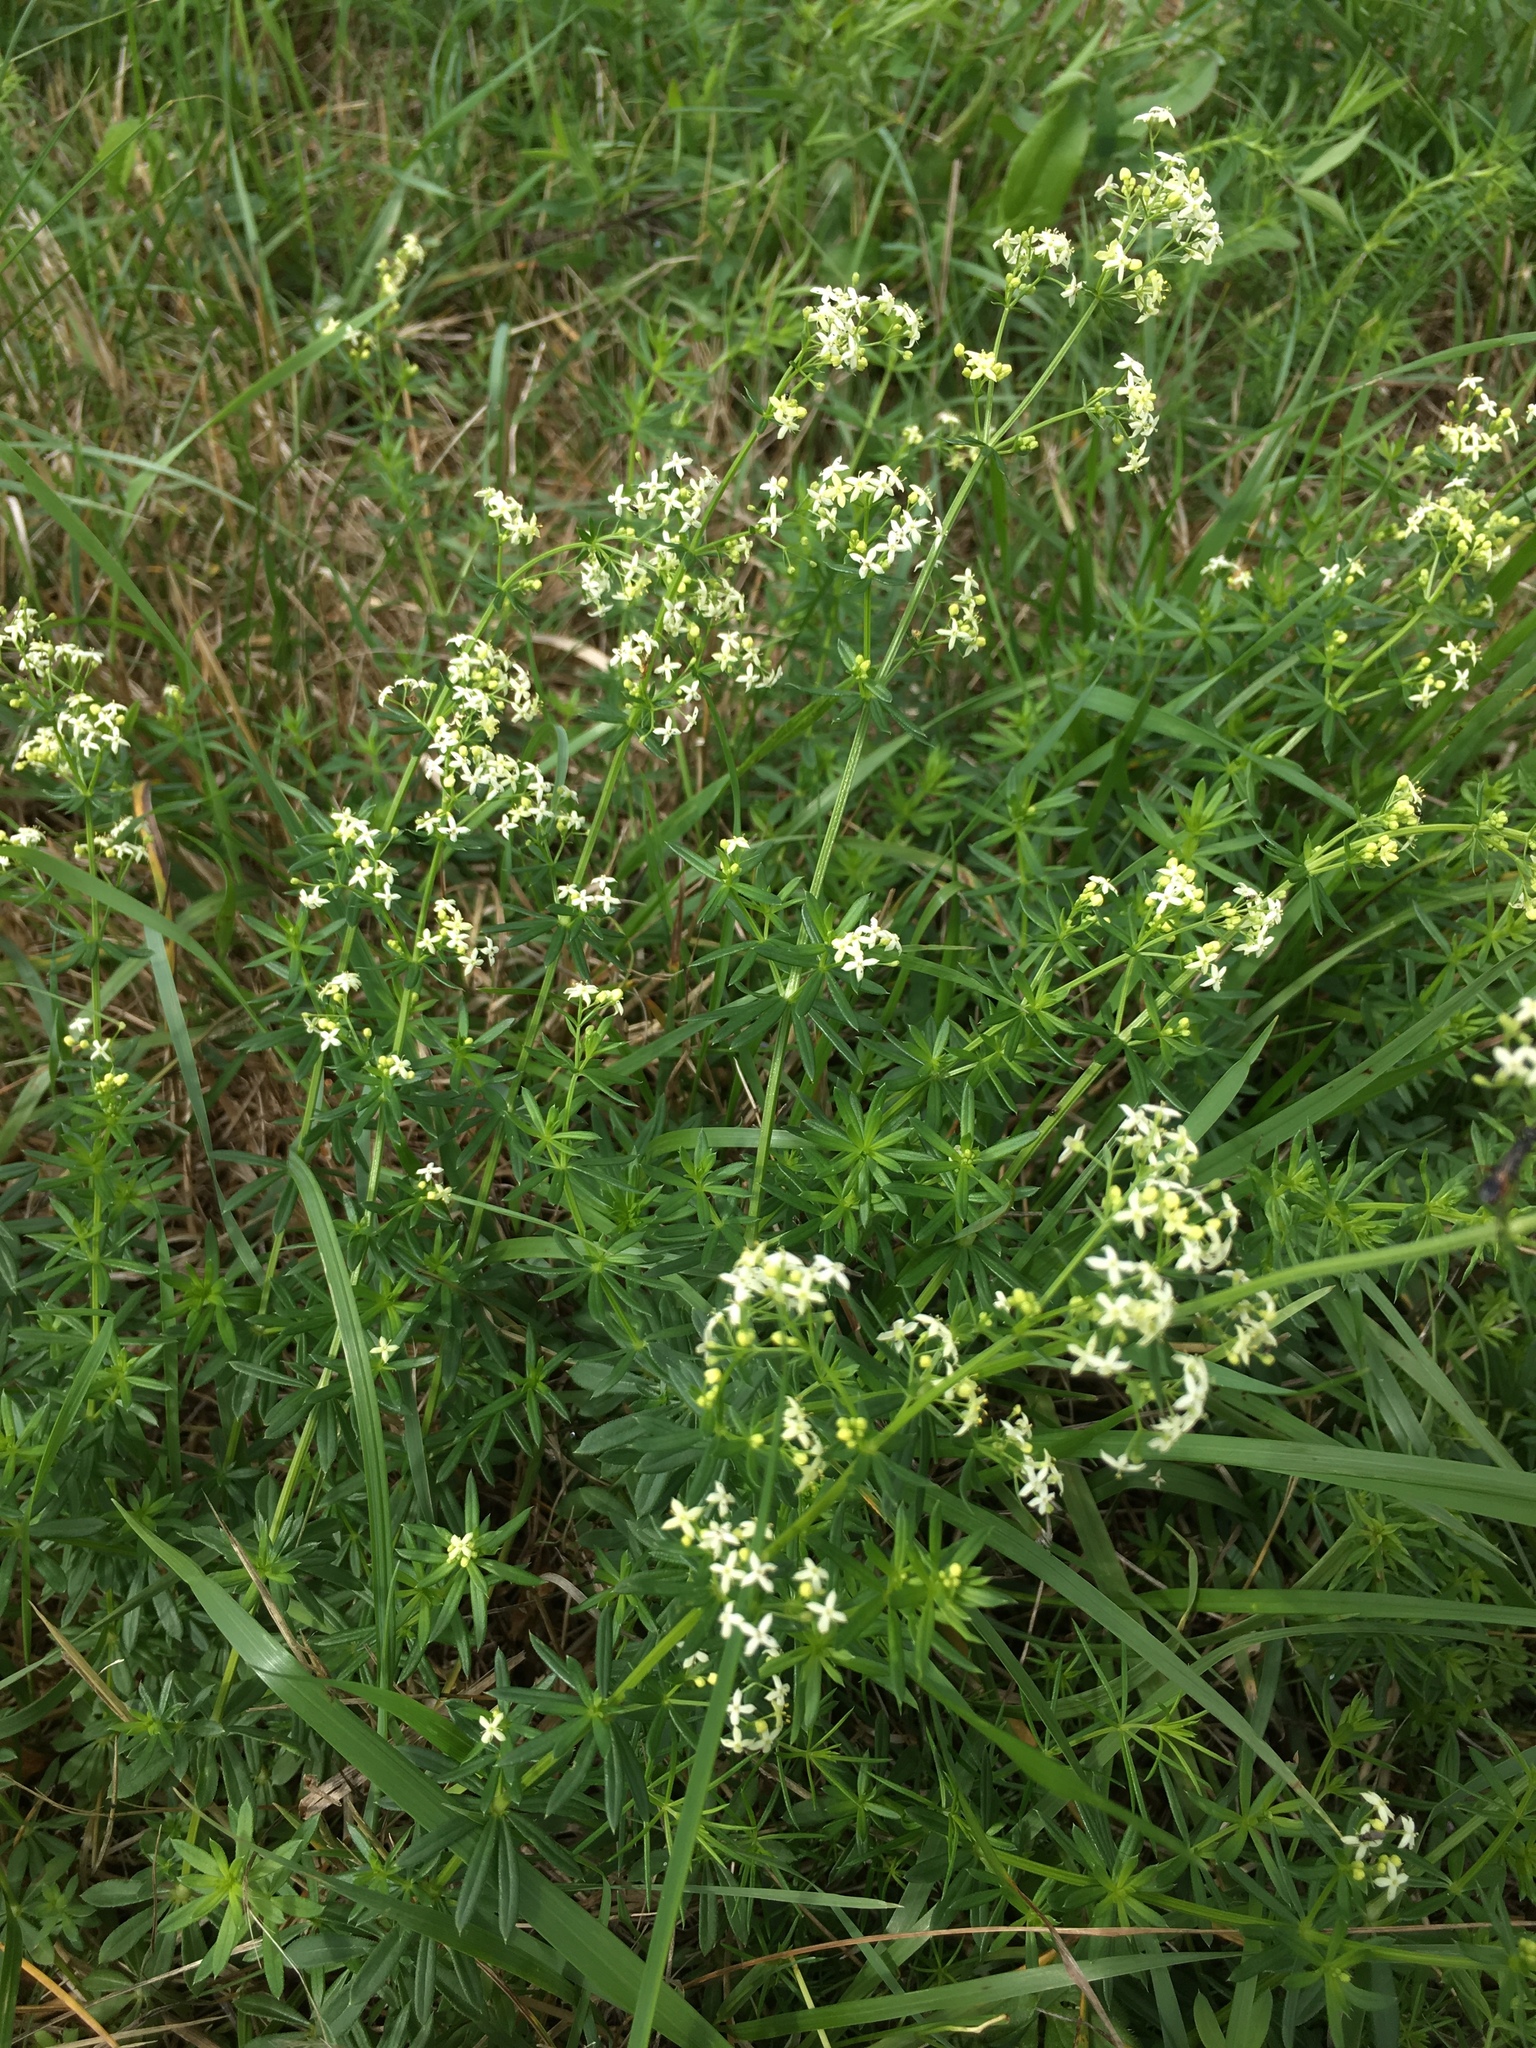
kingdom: Plantae
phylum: Tracheophyta
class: Magnoliopsida
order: Gentianales
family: Rubiaceae
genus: Galium
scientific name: Galium album
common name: White bedstraw
